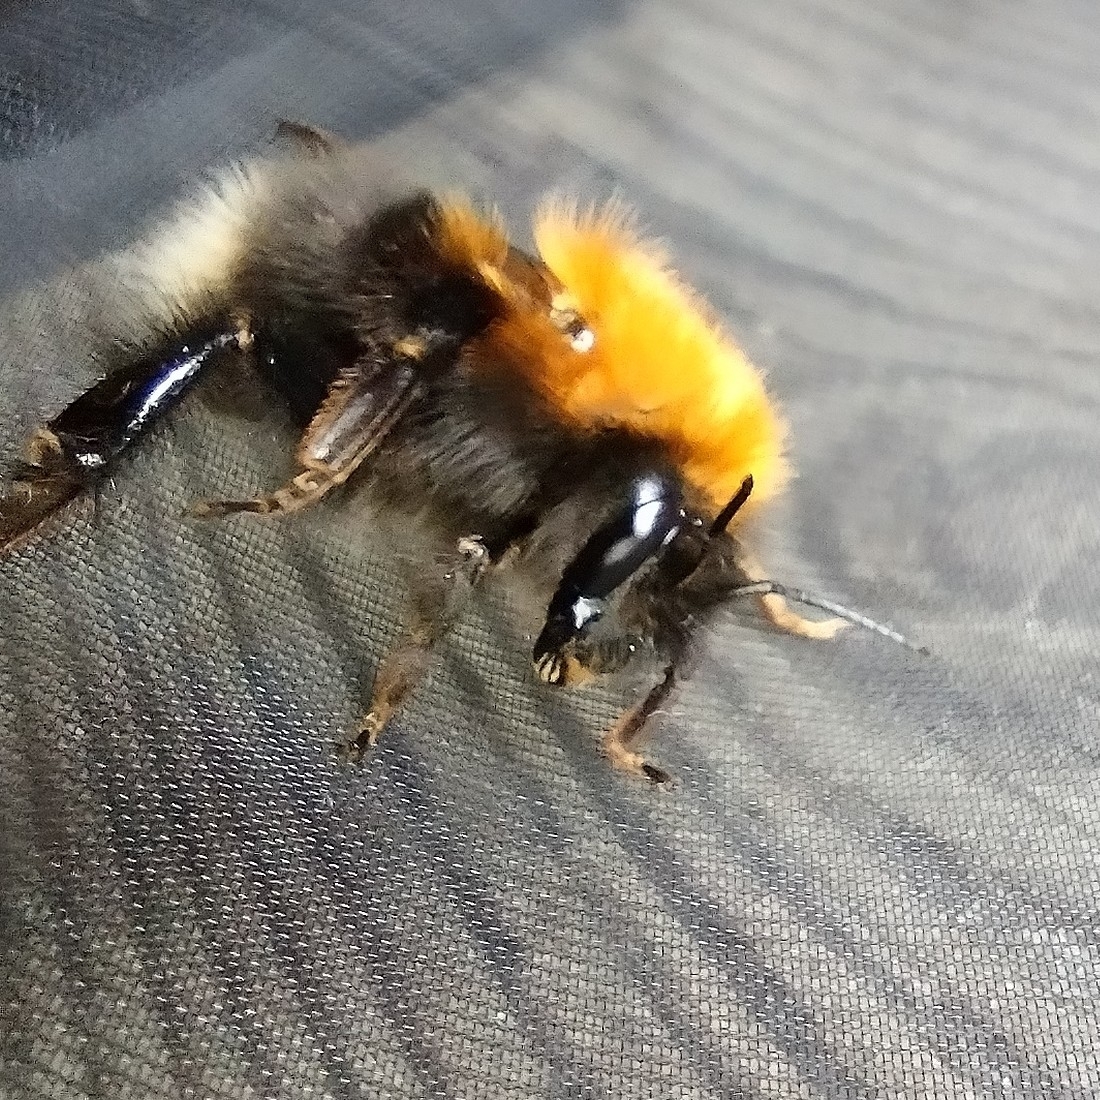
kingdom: Animalia
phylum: Arthropoda
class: Insecta
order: Hymenoptera
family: Apidae
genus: Bombus
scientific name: Bombus hypnorum
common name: New garden bumblebee
